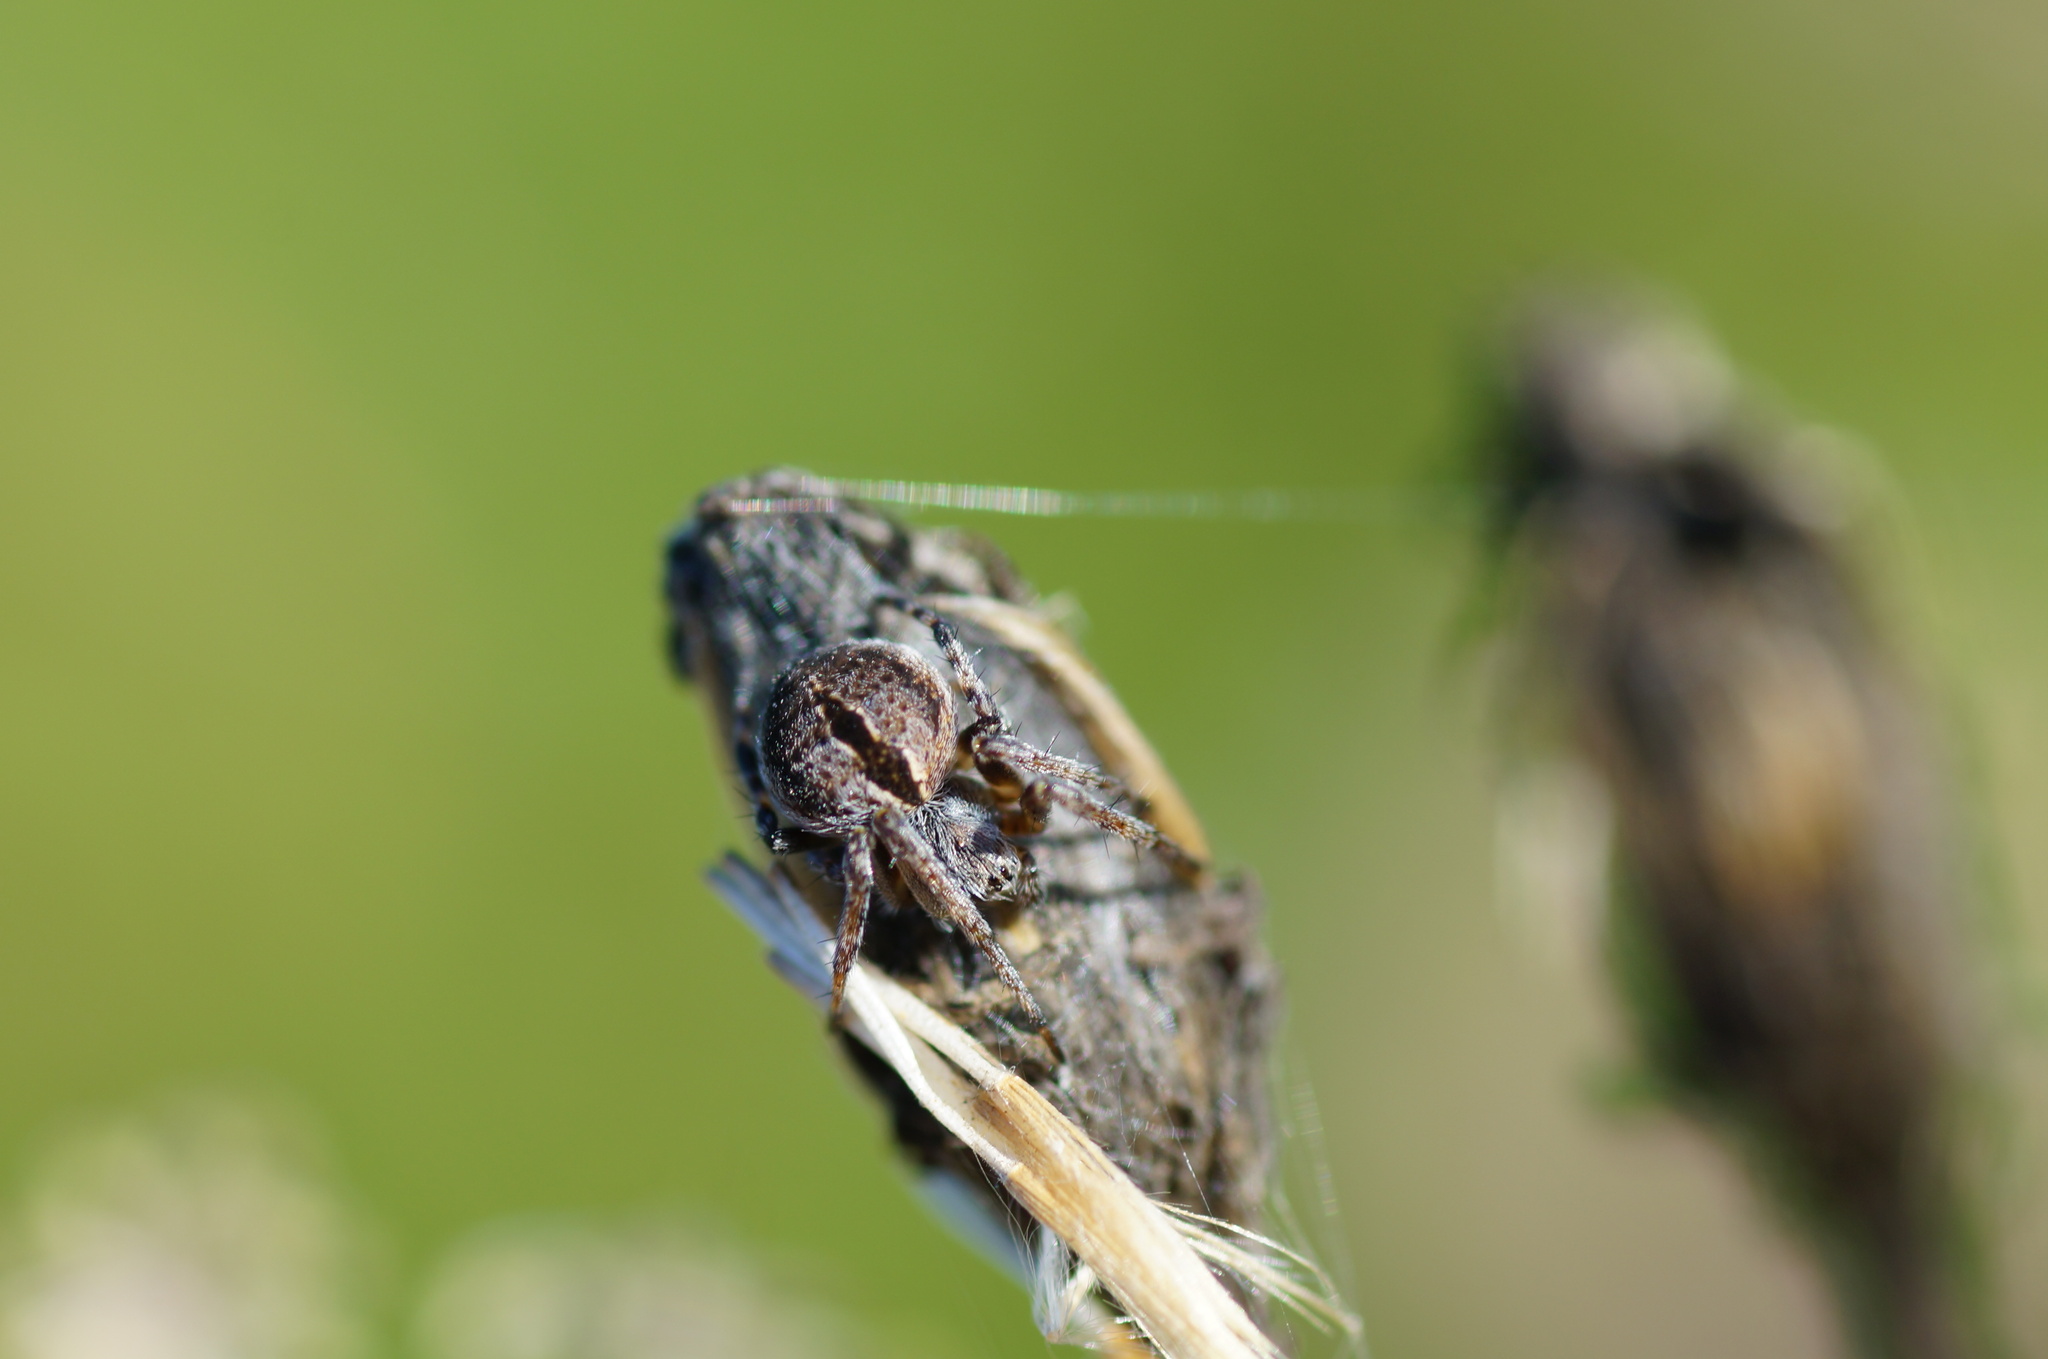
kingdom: Animalia
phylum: Arthropoda
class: Arachnida
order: Araneae
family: Araneidae
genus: Agalenatea
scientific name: Agalenatea redii
